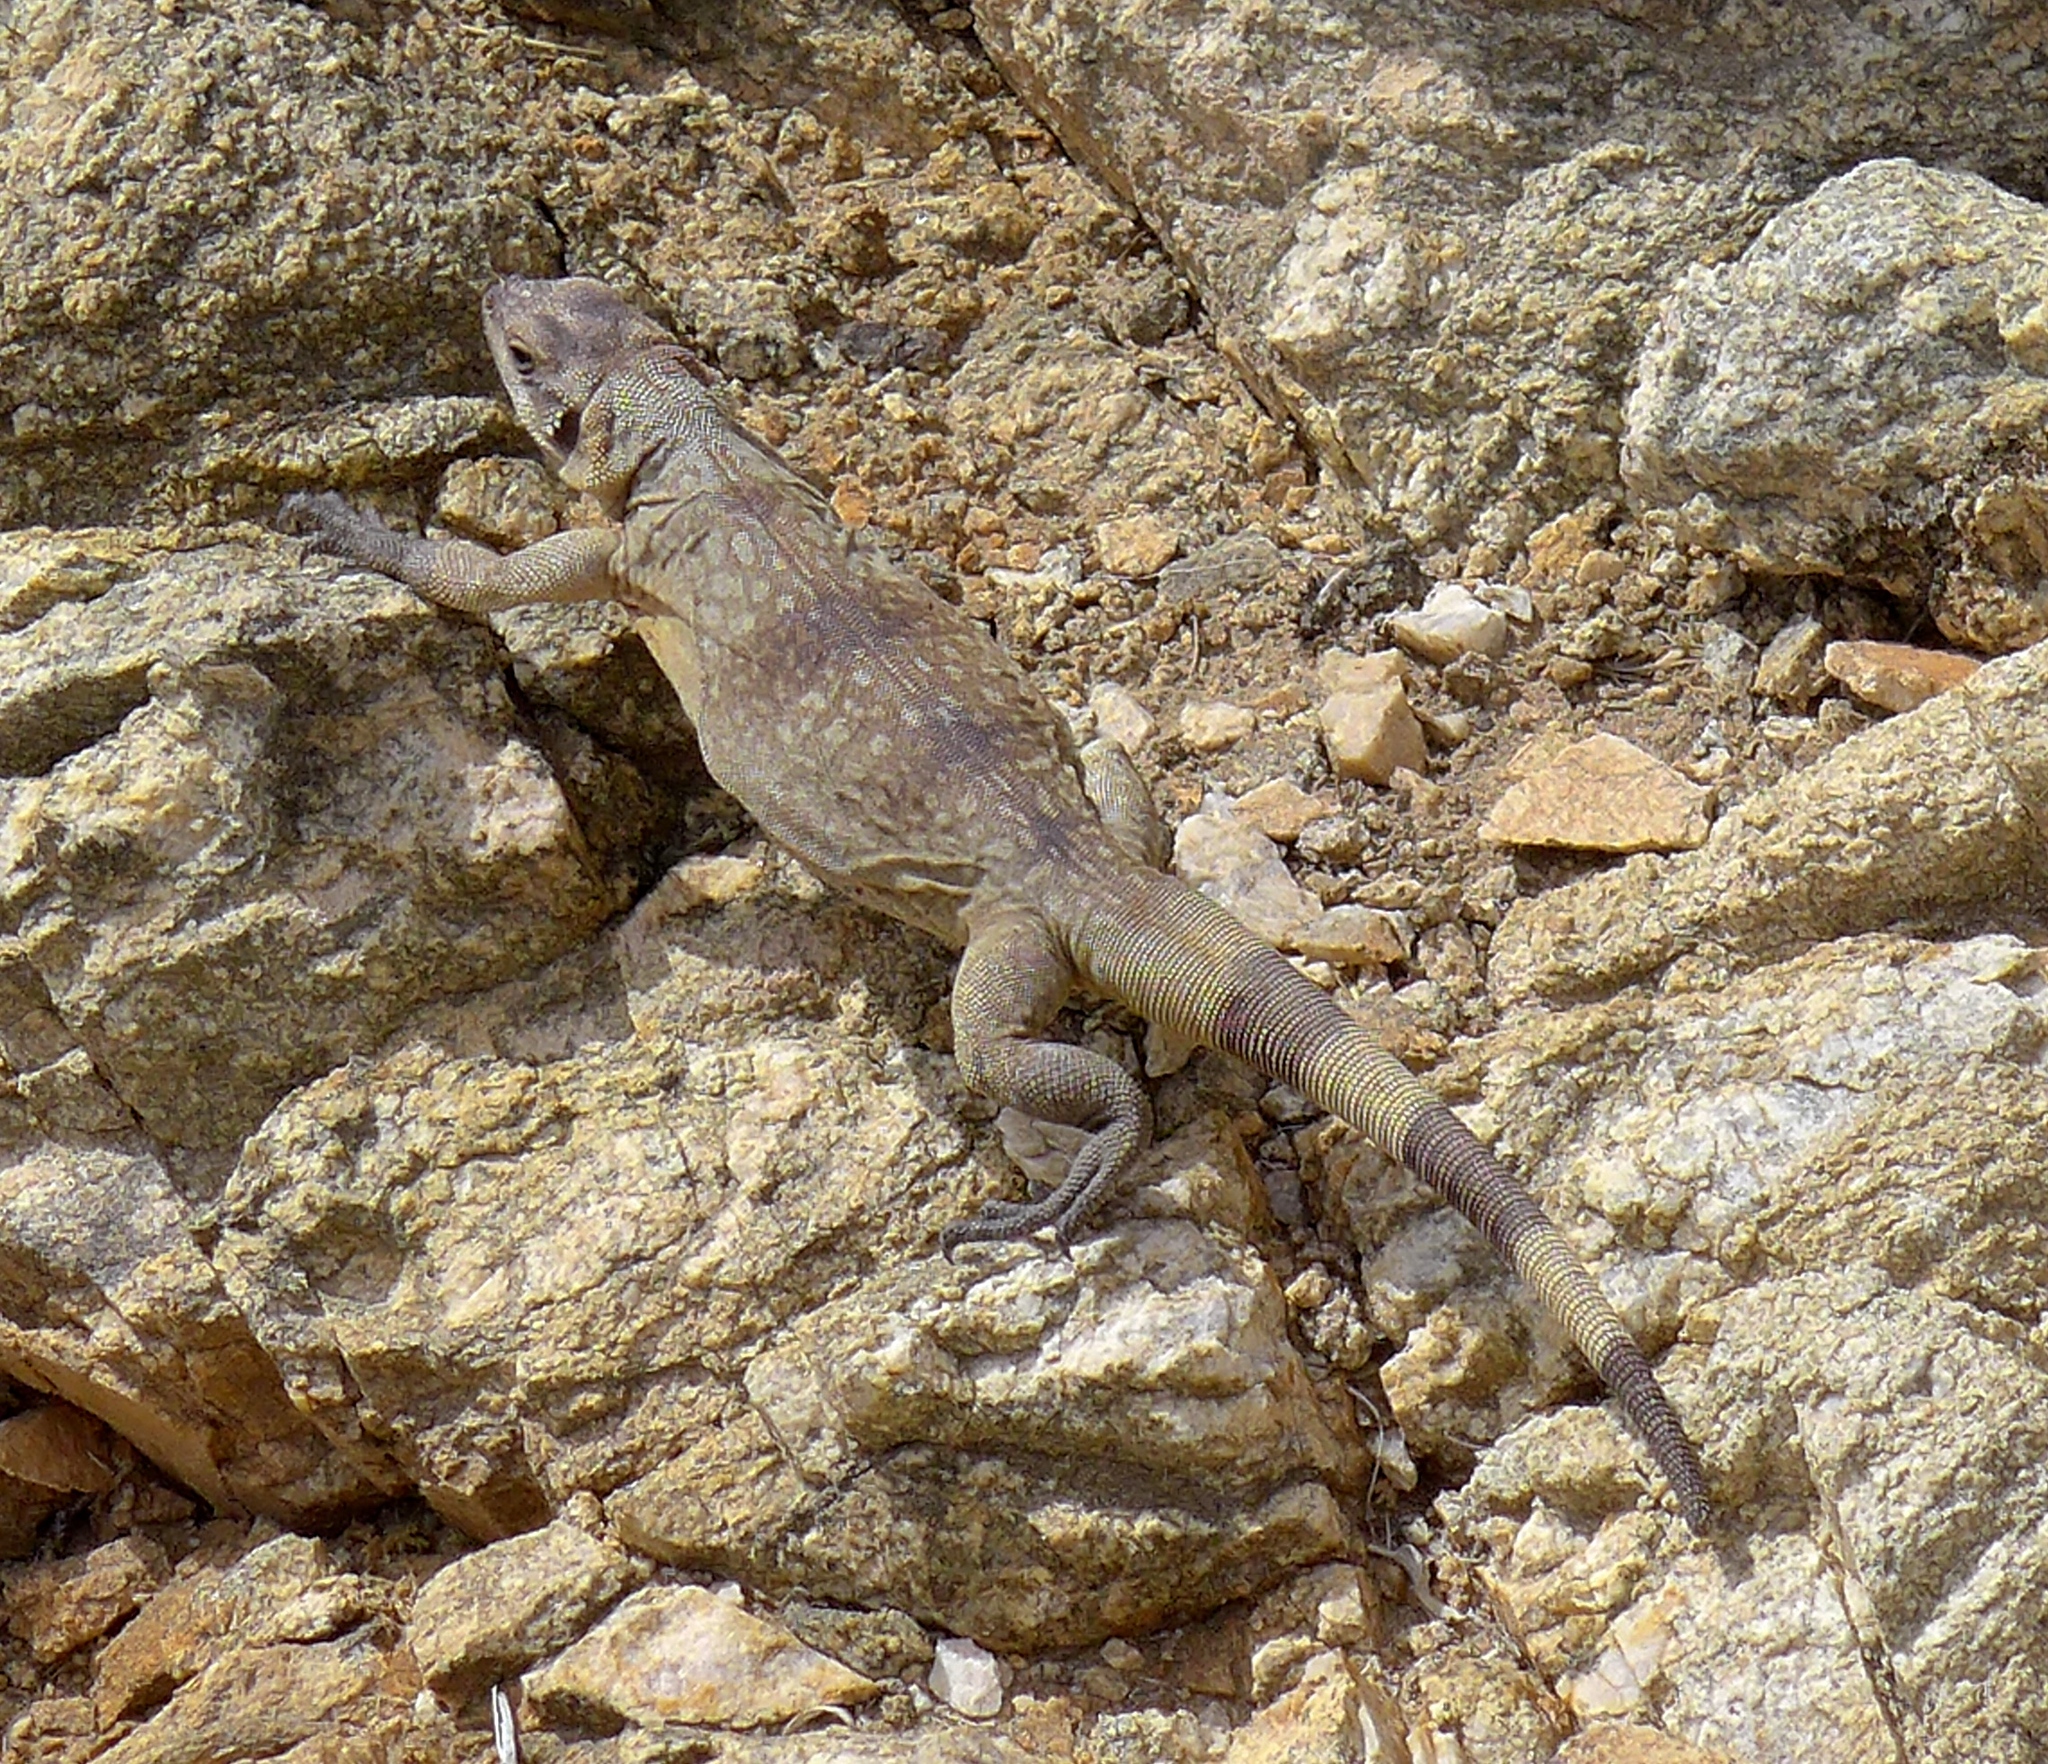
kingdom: Animalia
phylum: Chordata
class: Squamata
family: Iguanidae
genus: Sauromalus
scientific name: Sauromalus ater
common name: Northern chuckwalla
